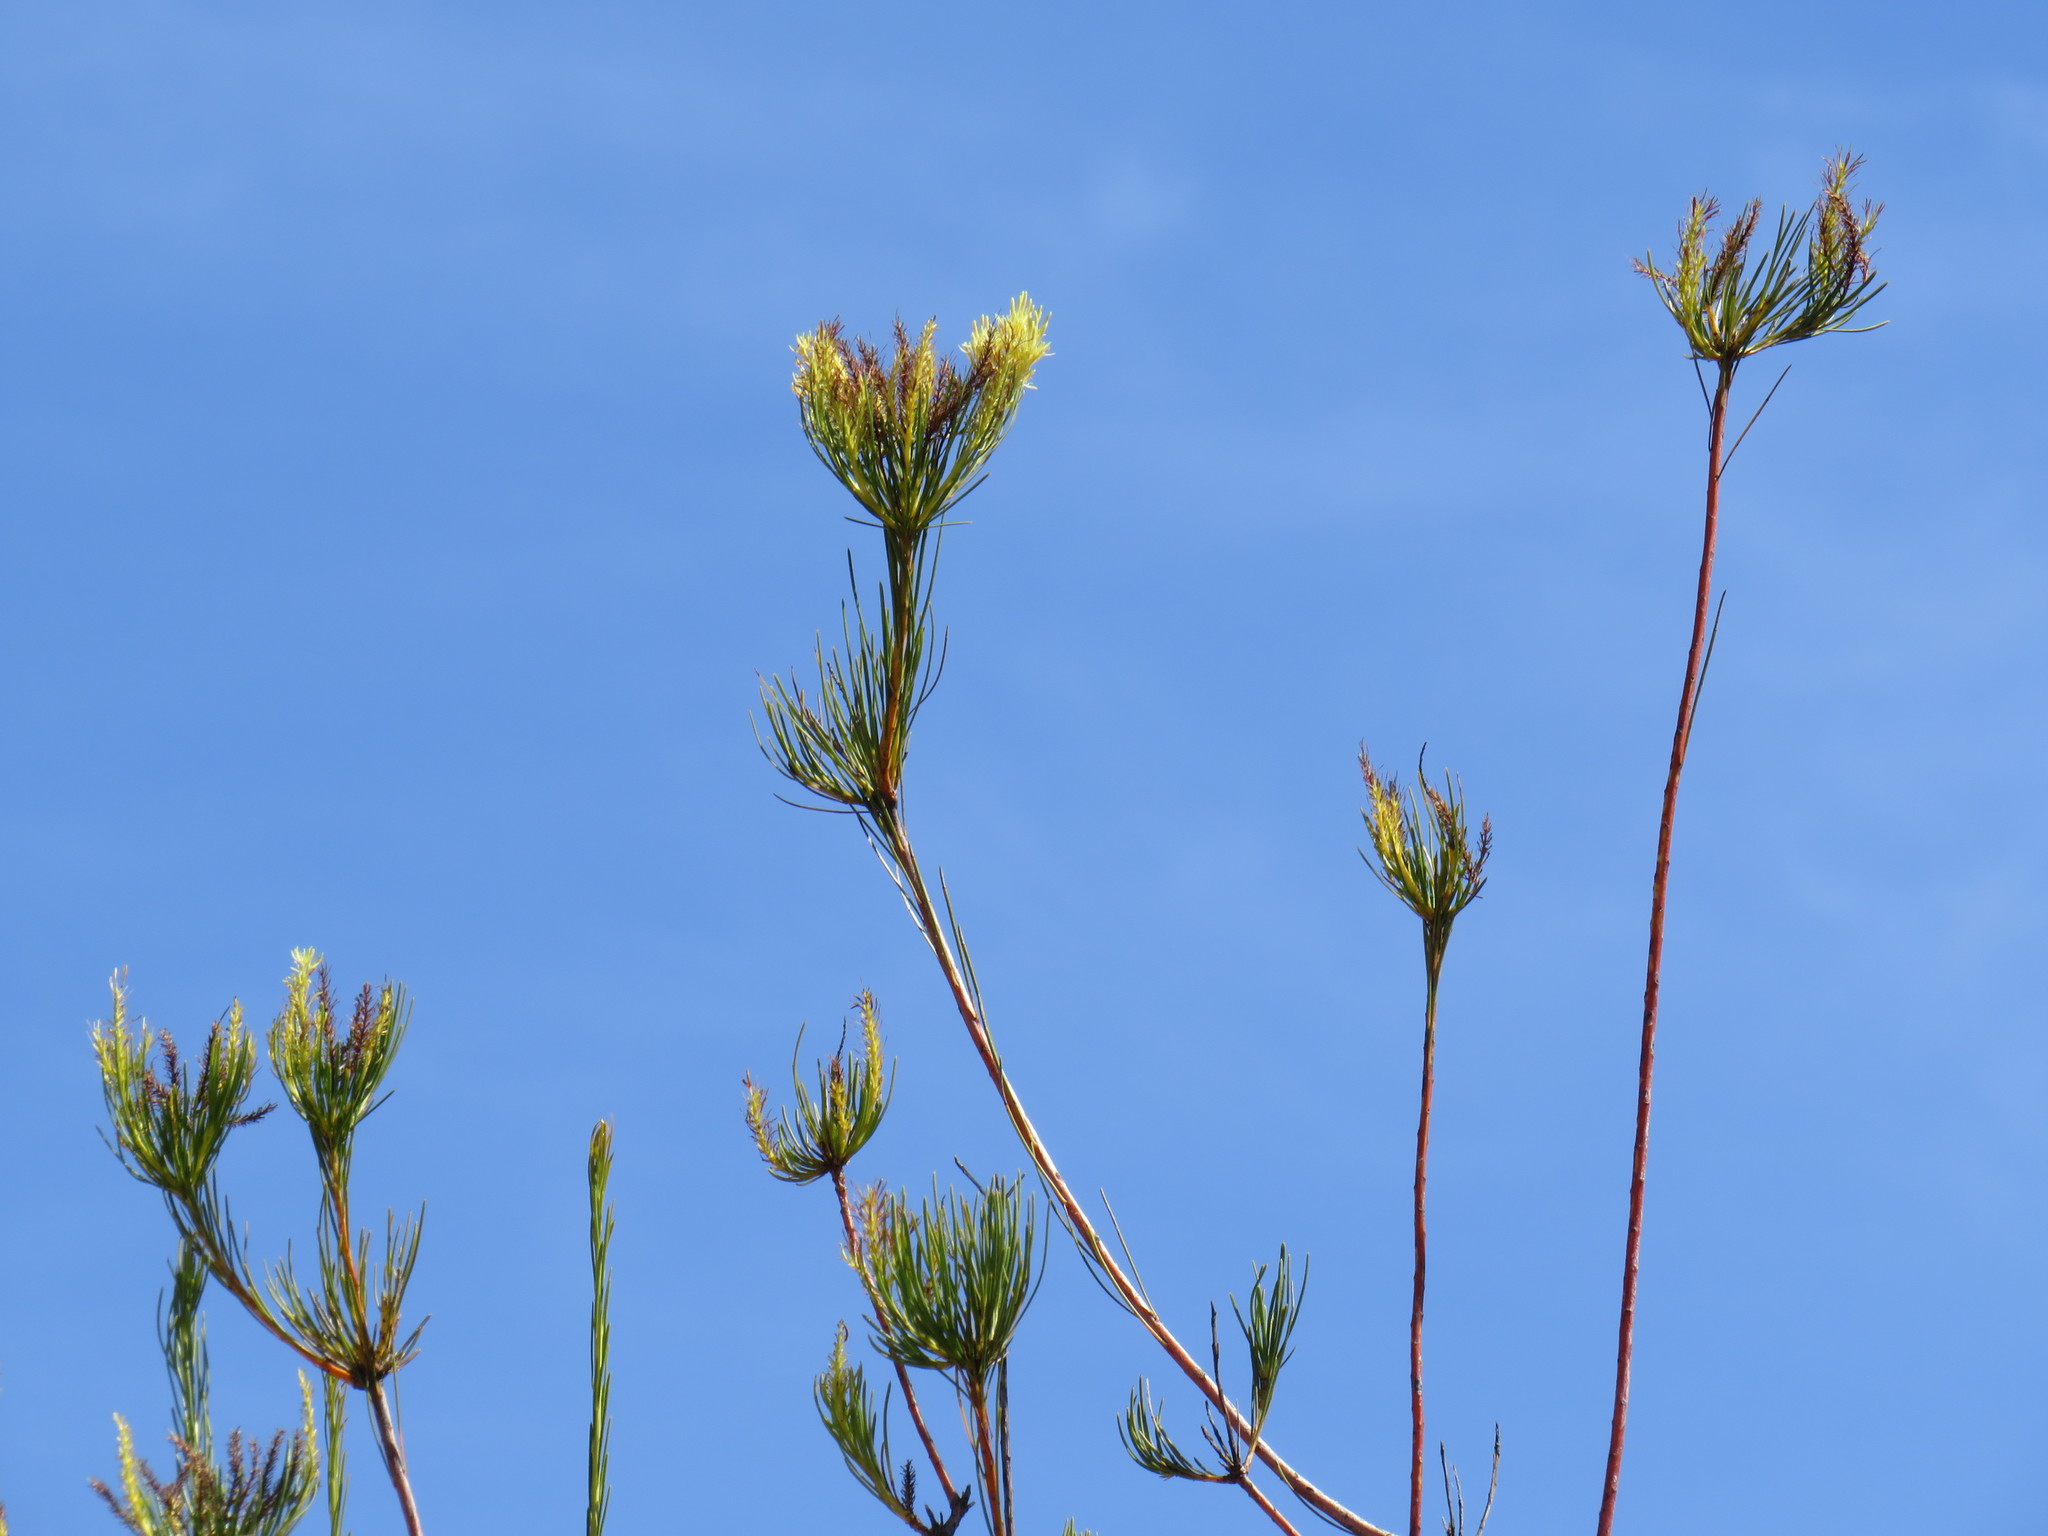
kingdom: Plantae
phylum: Tracheophyta
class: Magnoliopsida
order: Proteales
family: Proteaceae
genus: Aulax
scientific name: Aulax pallasia
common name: Needle-leaf featherbush
